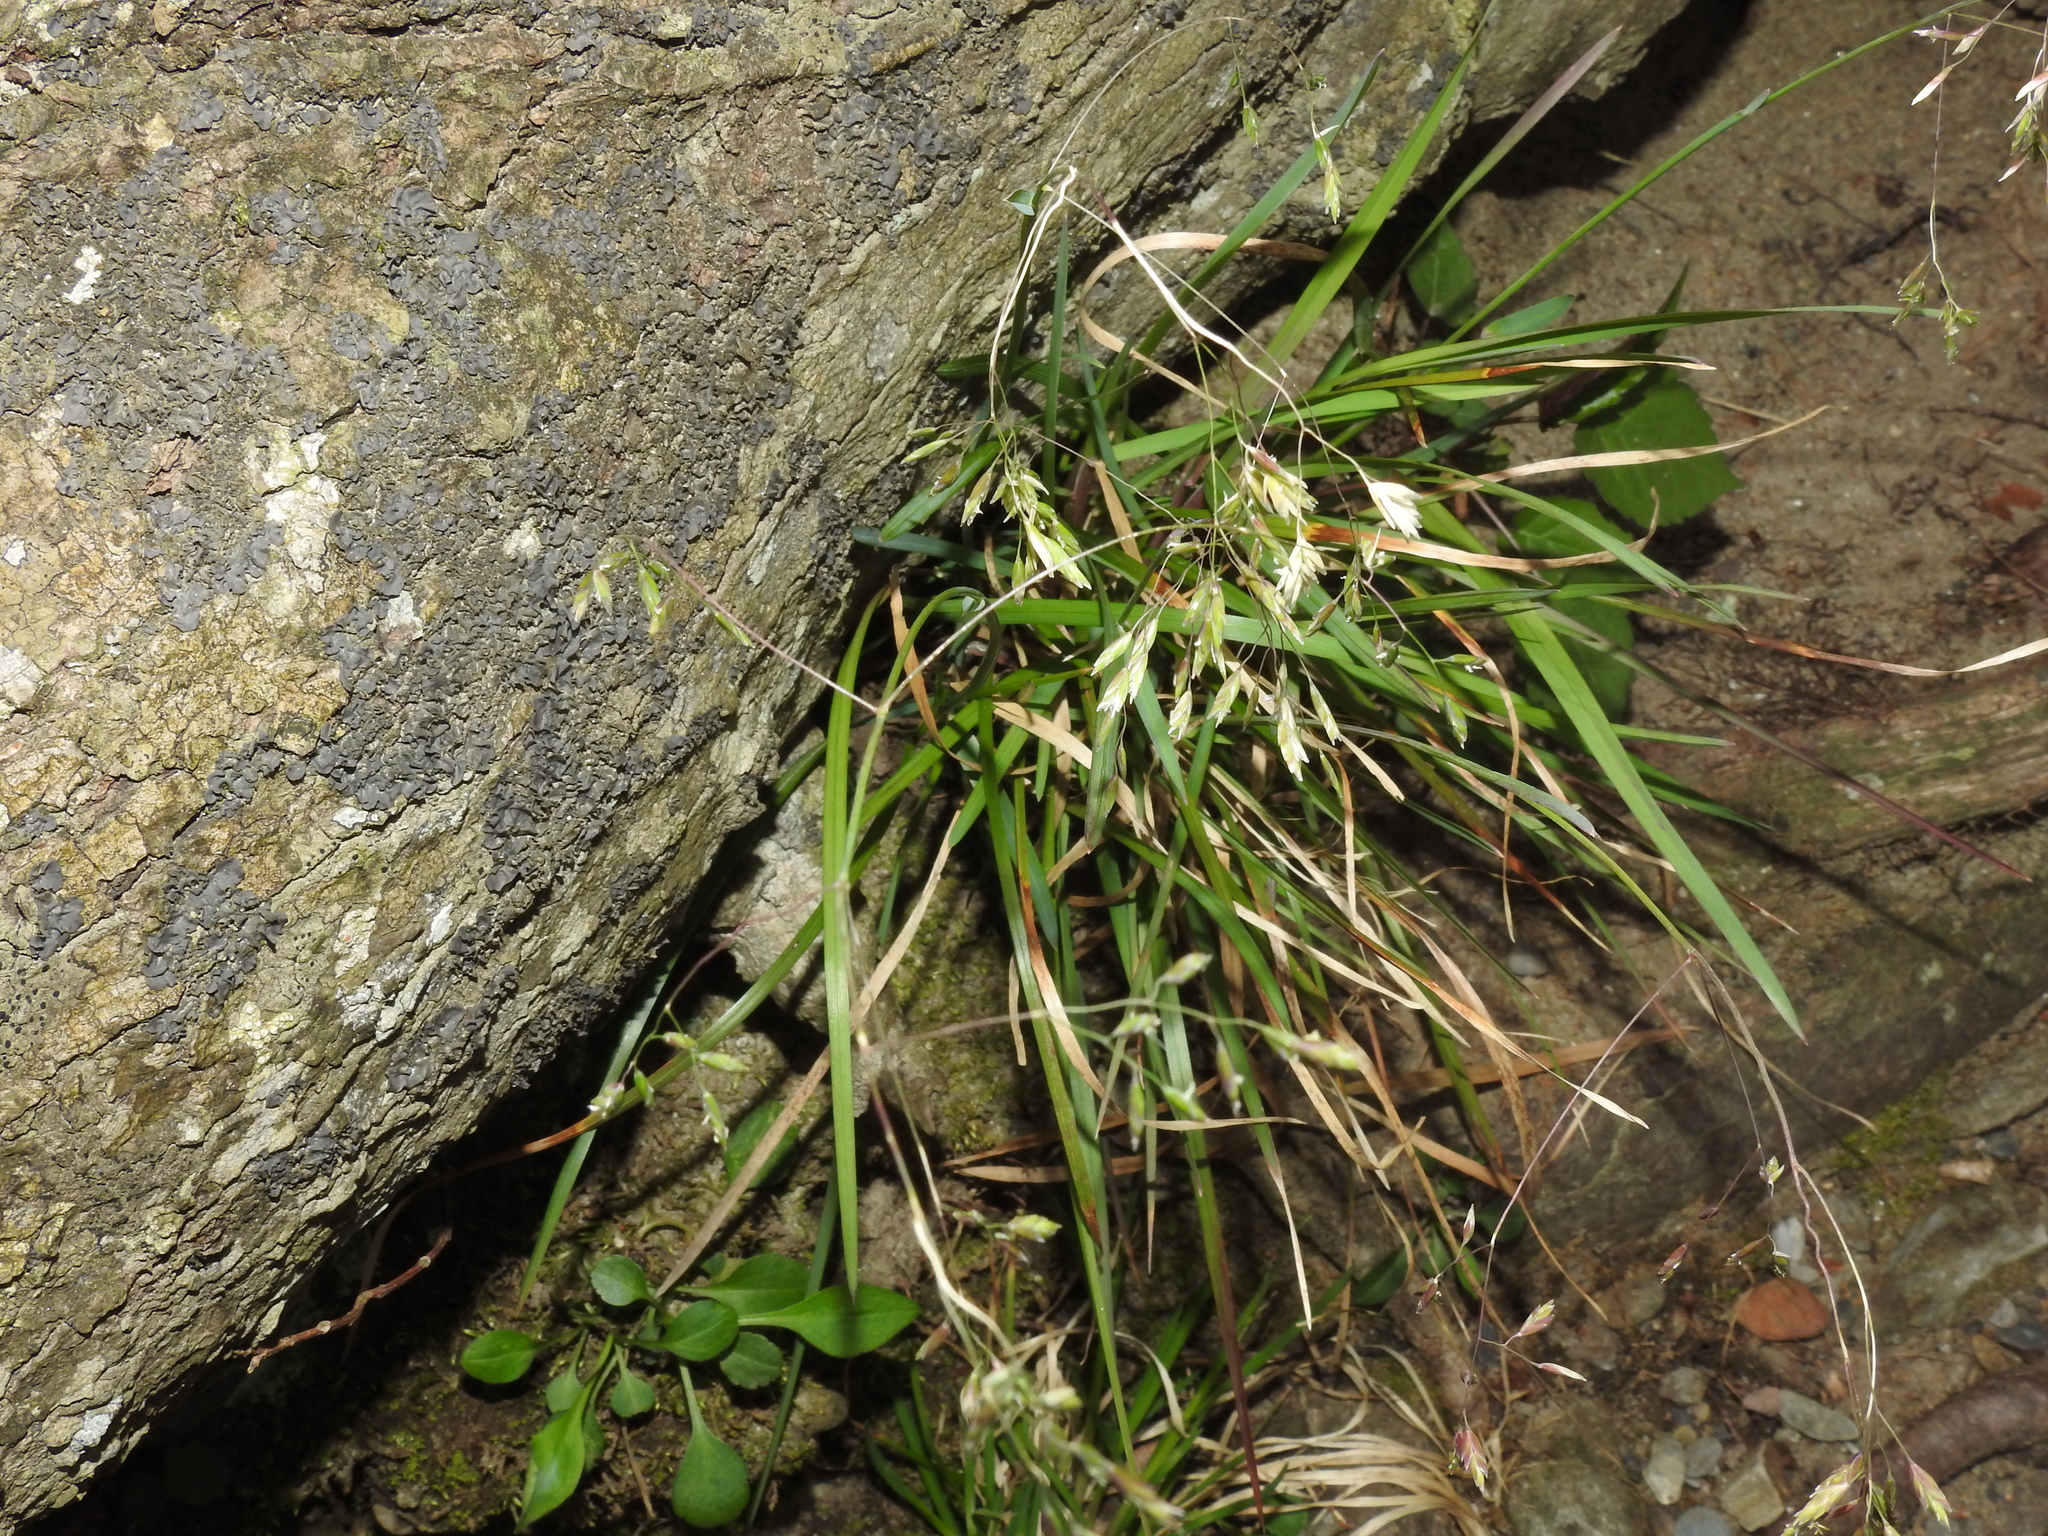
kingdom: Plantae
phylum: Tracheophyta
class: Liliopsida
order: Poales
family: Poaceae
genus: Poa
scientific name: Poa cuspidata
